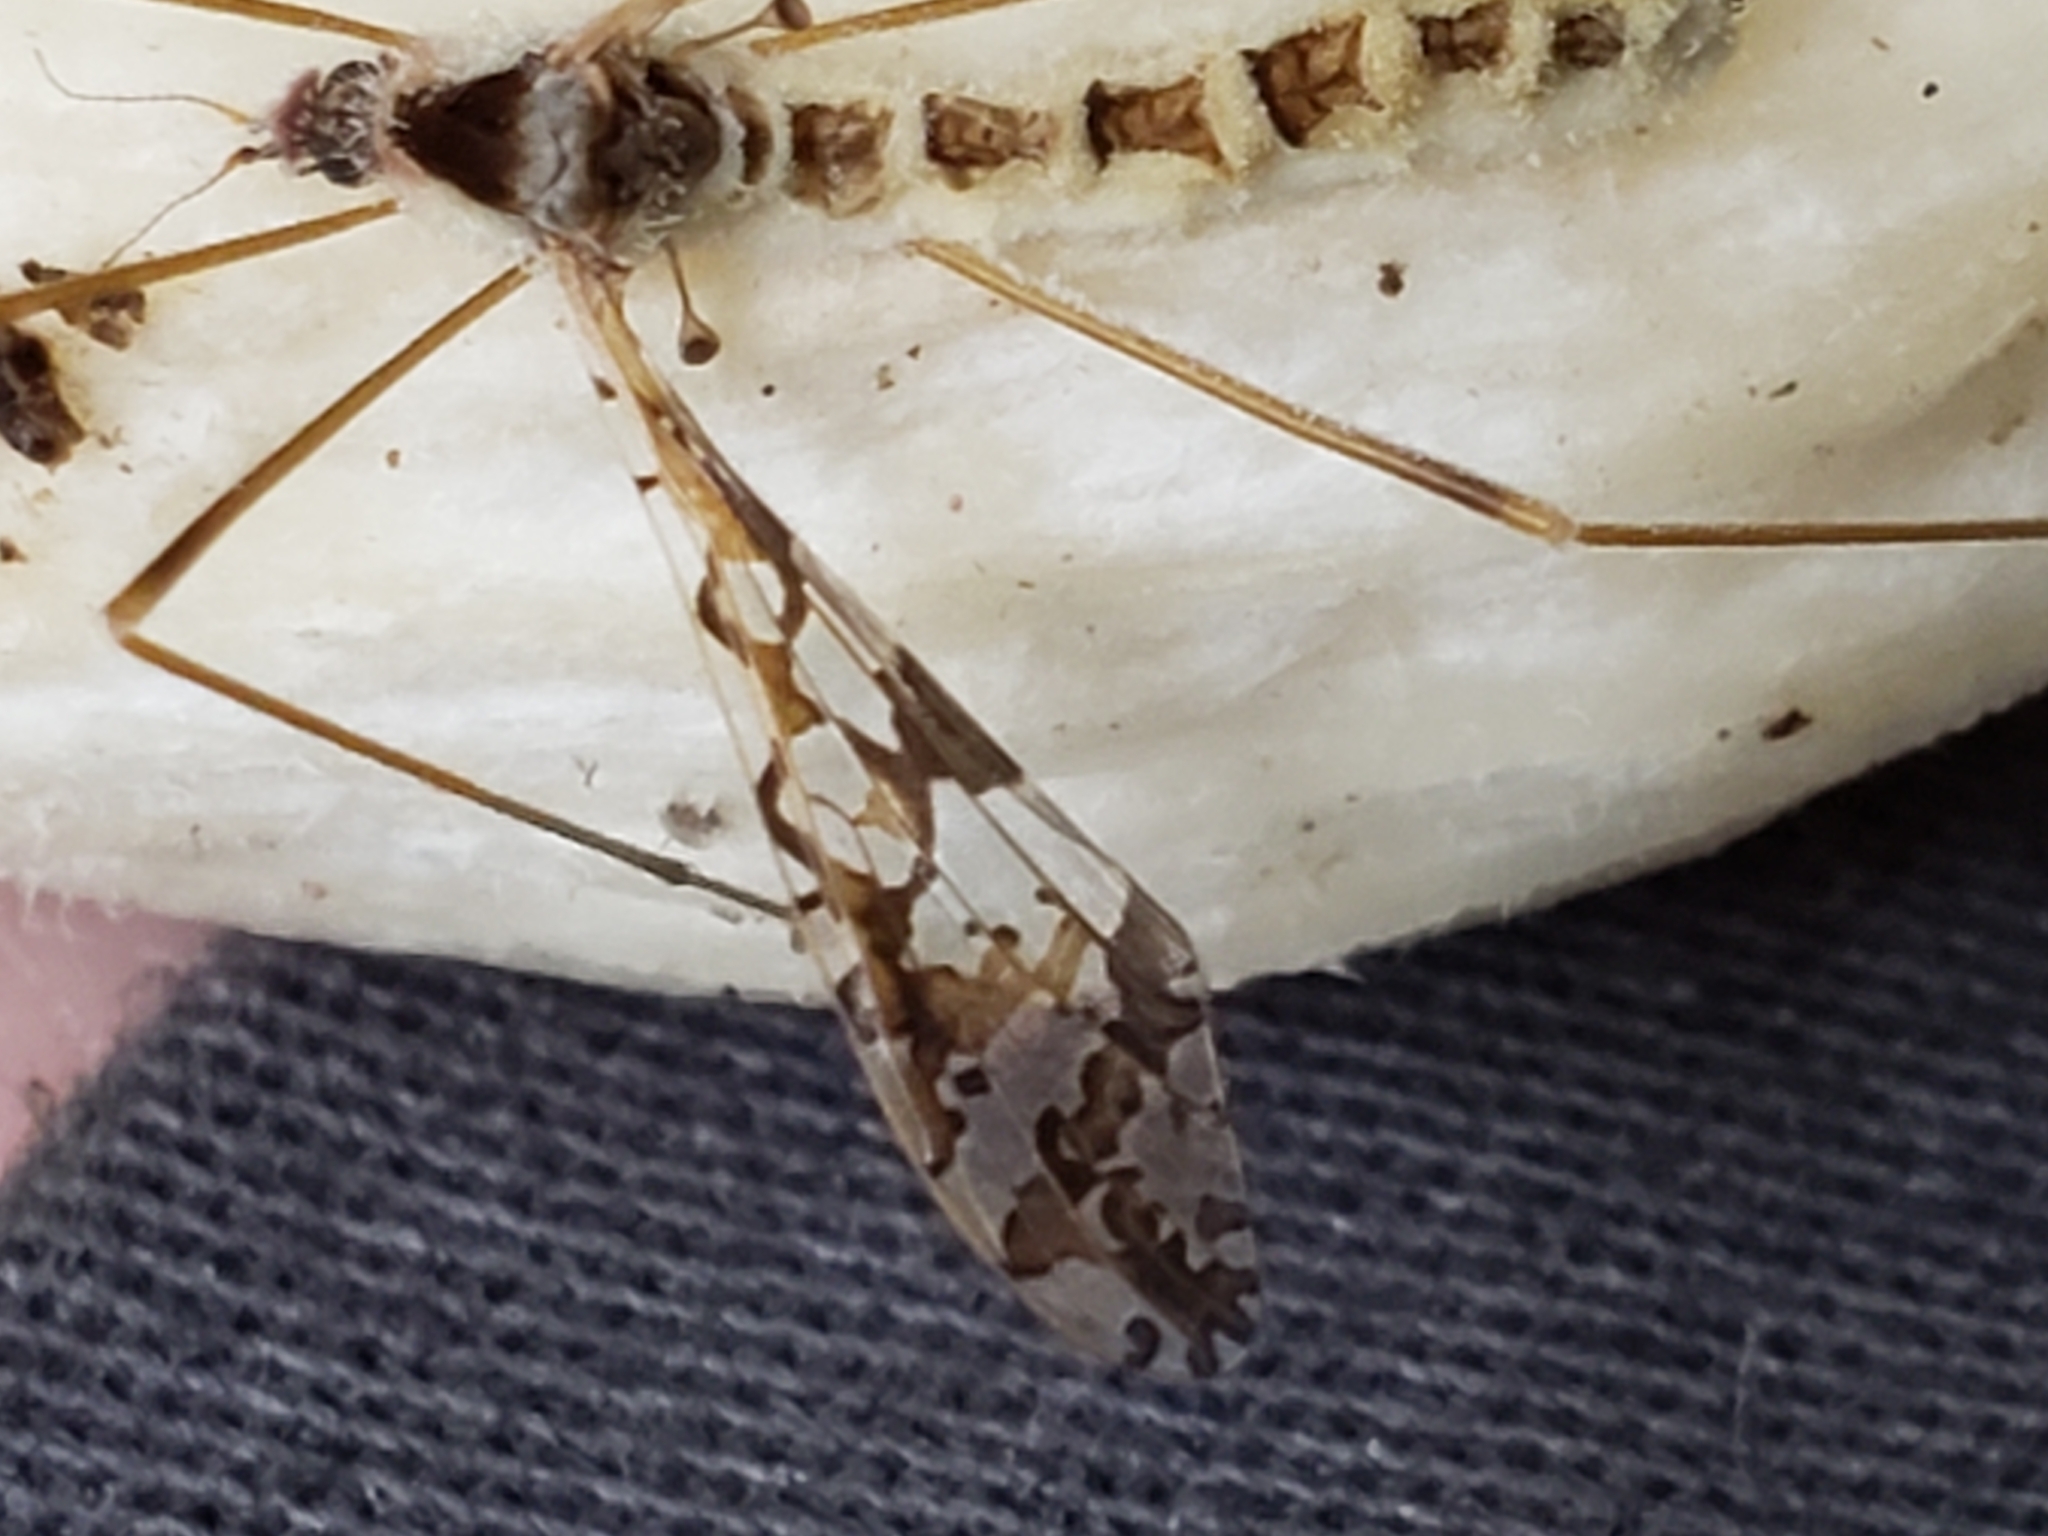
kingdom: Animalia
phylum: Arthropoda
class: Insecta
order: Diptera
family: Limoniidae
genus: Epiphragma
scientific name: Epiphragma solatrix
